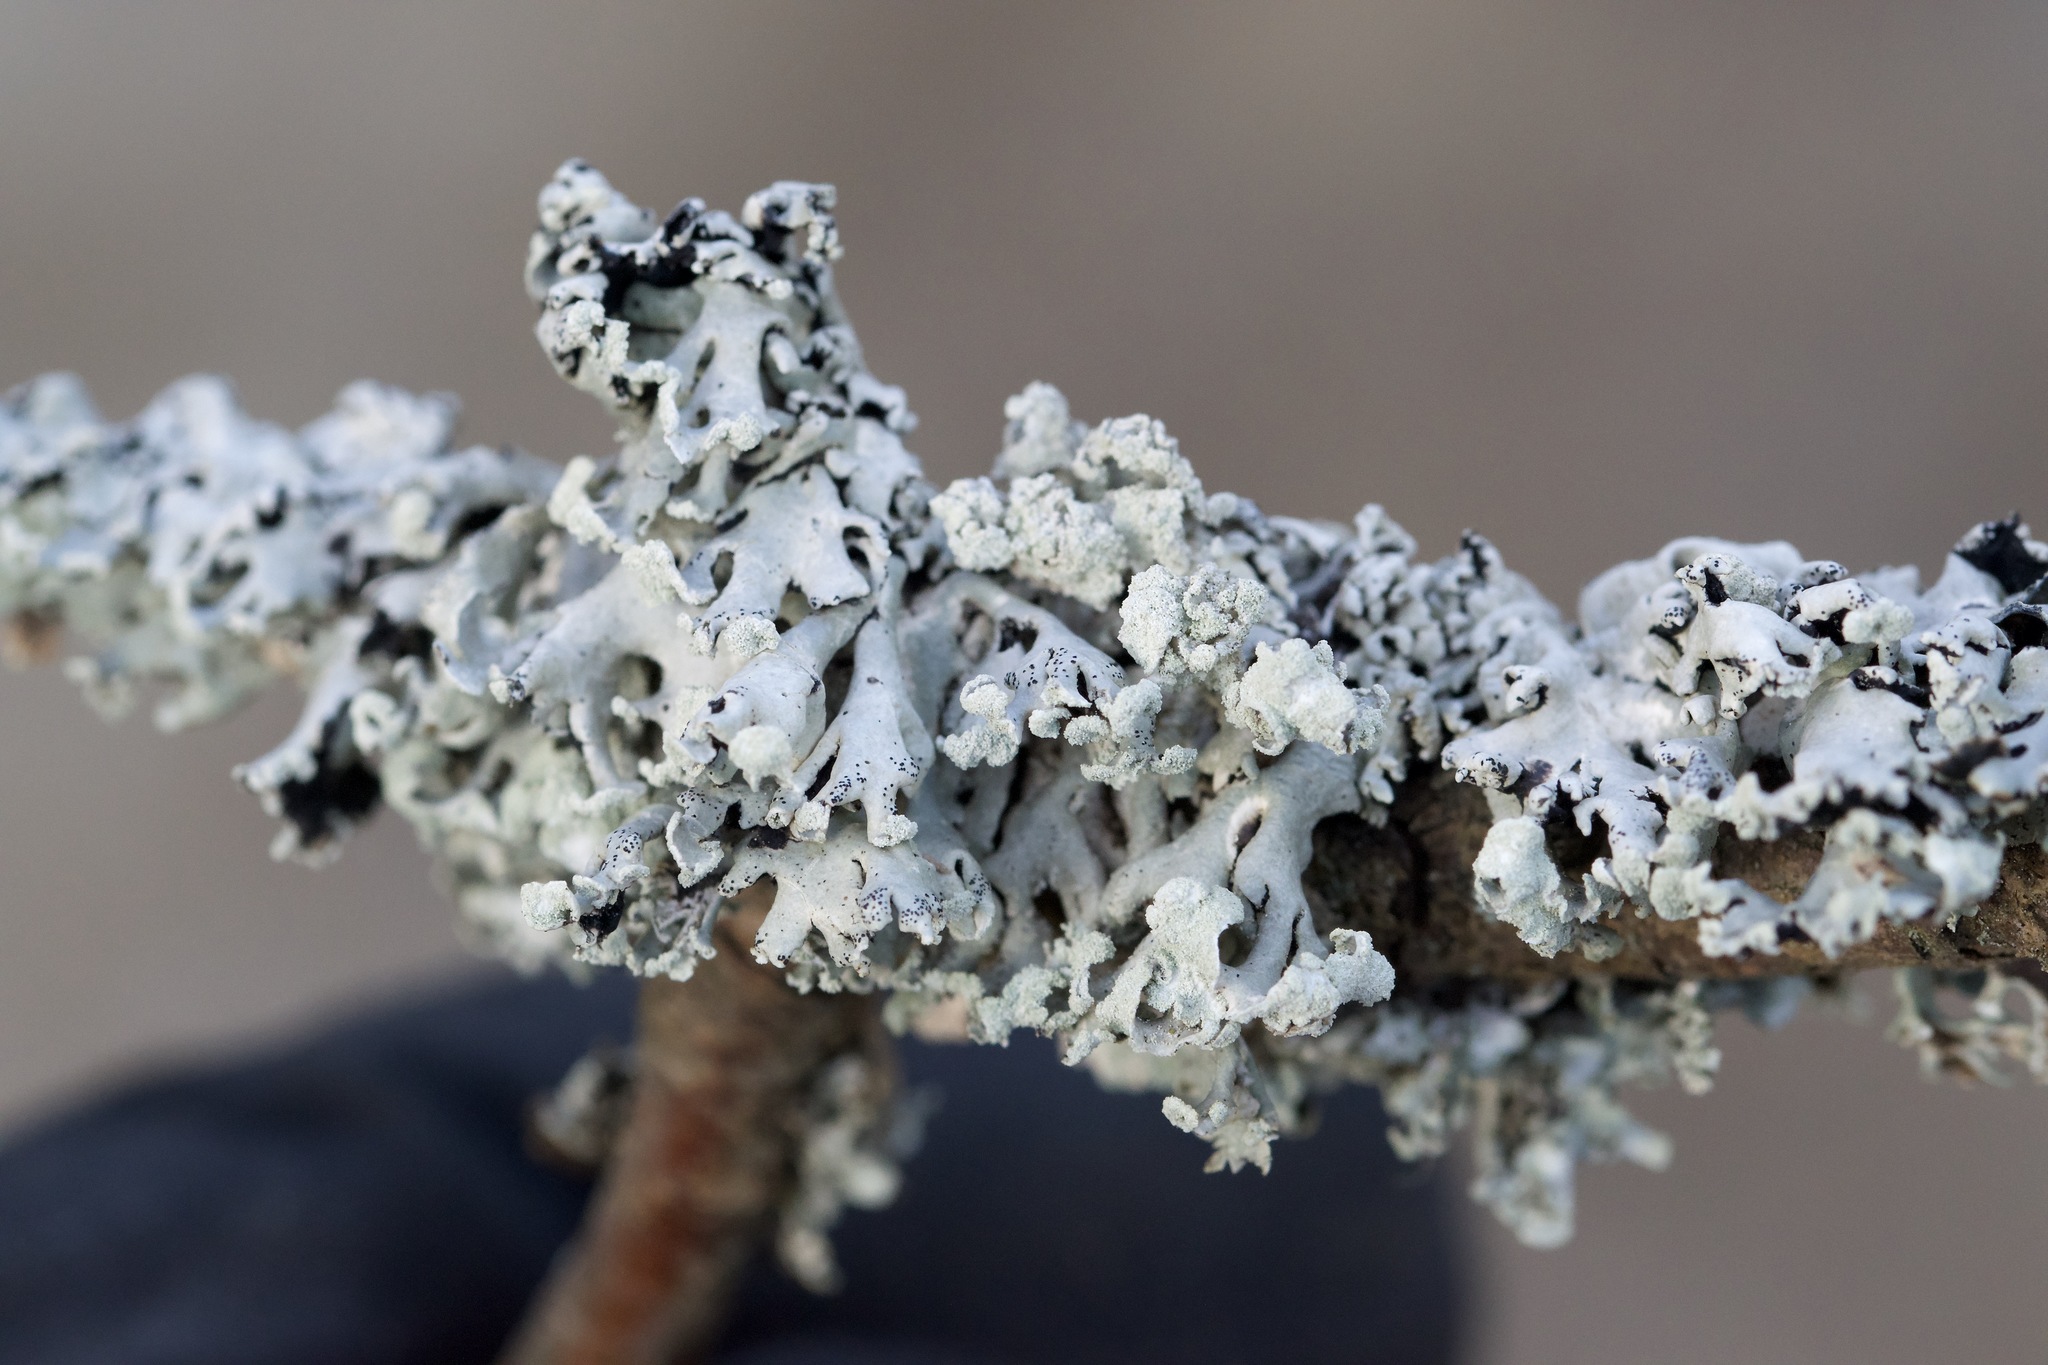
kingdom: Fungi
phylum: Ascomycota
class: Lecanoromycetes
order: Lecanorales
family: Parmeliaceae
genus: Hypogymnia
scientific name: Hypogymnia physodes
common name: Dark crottle
